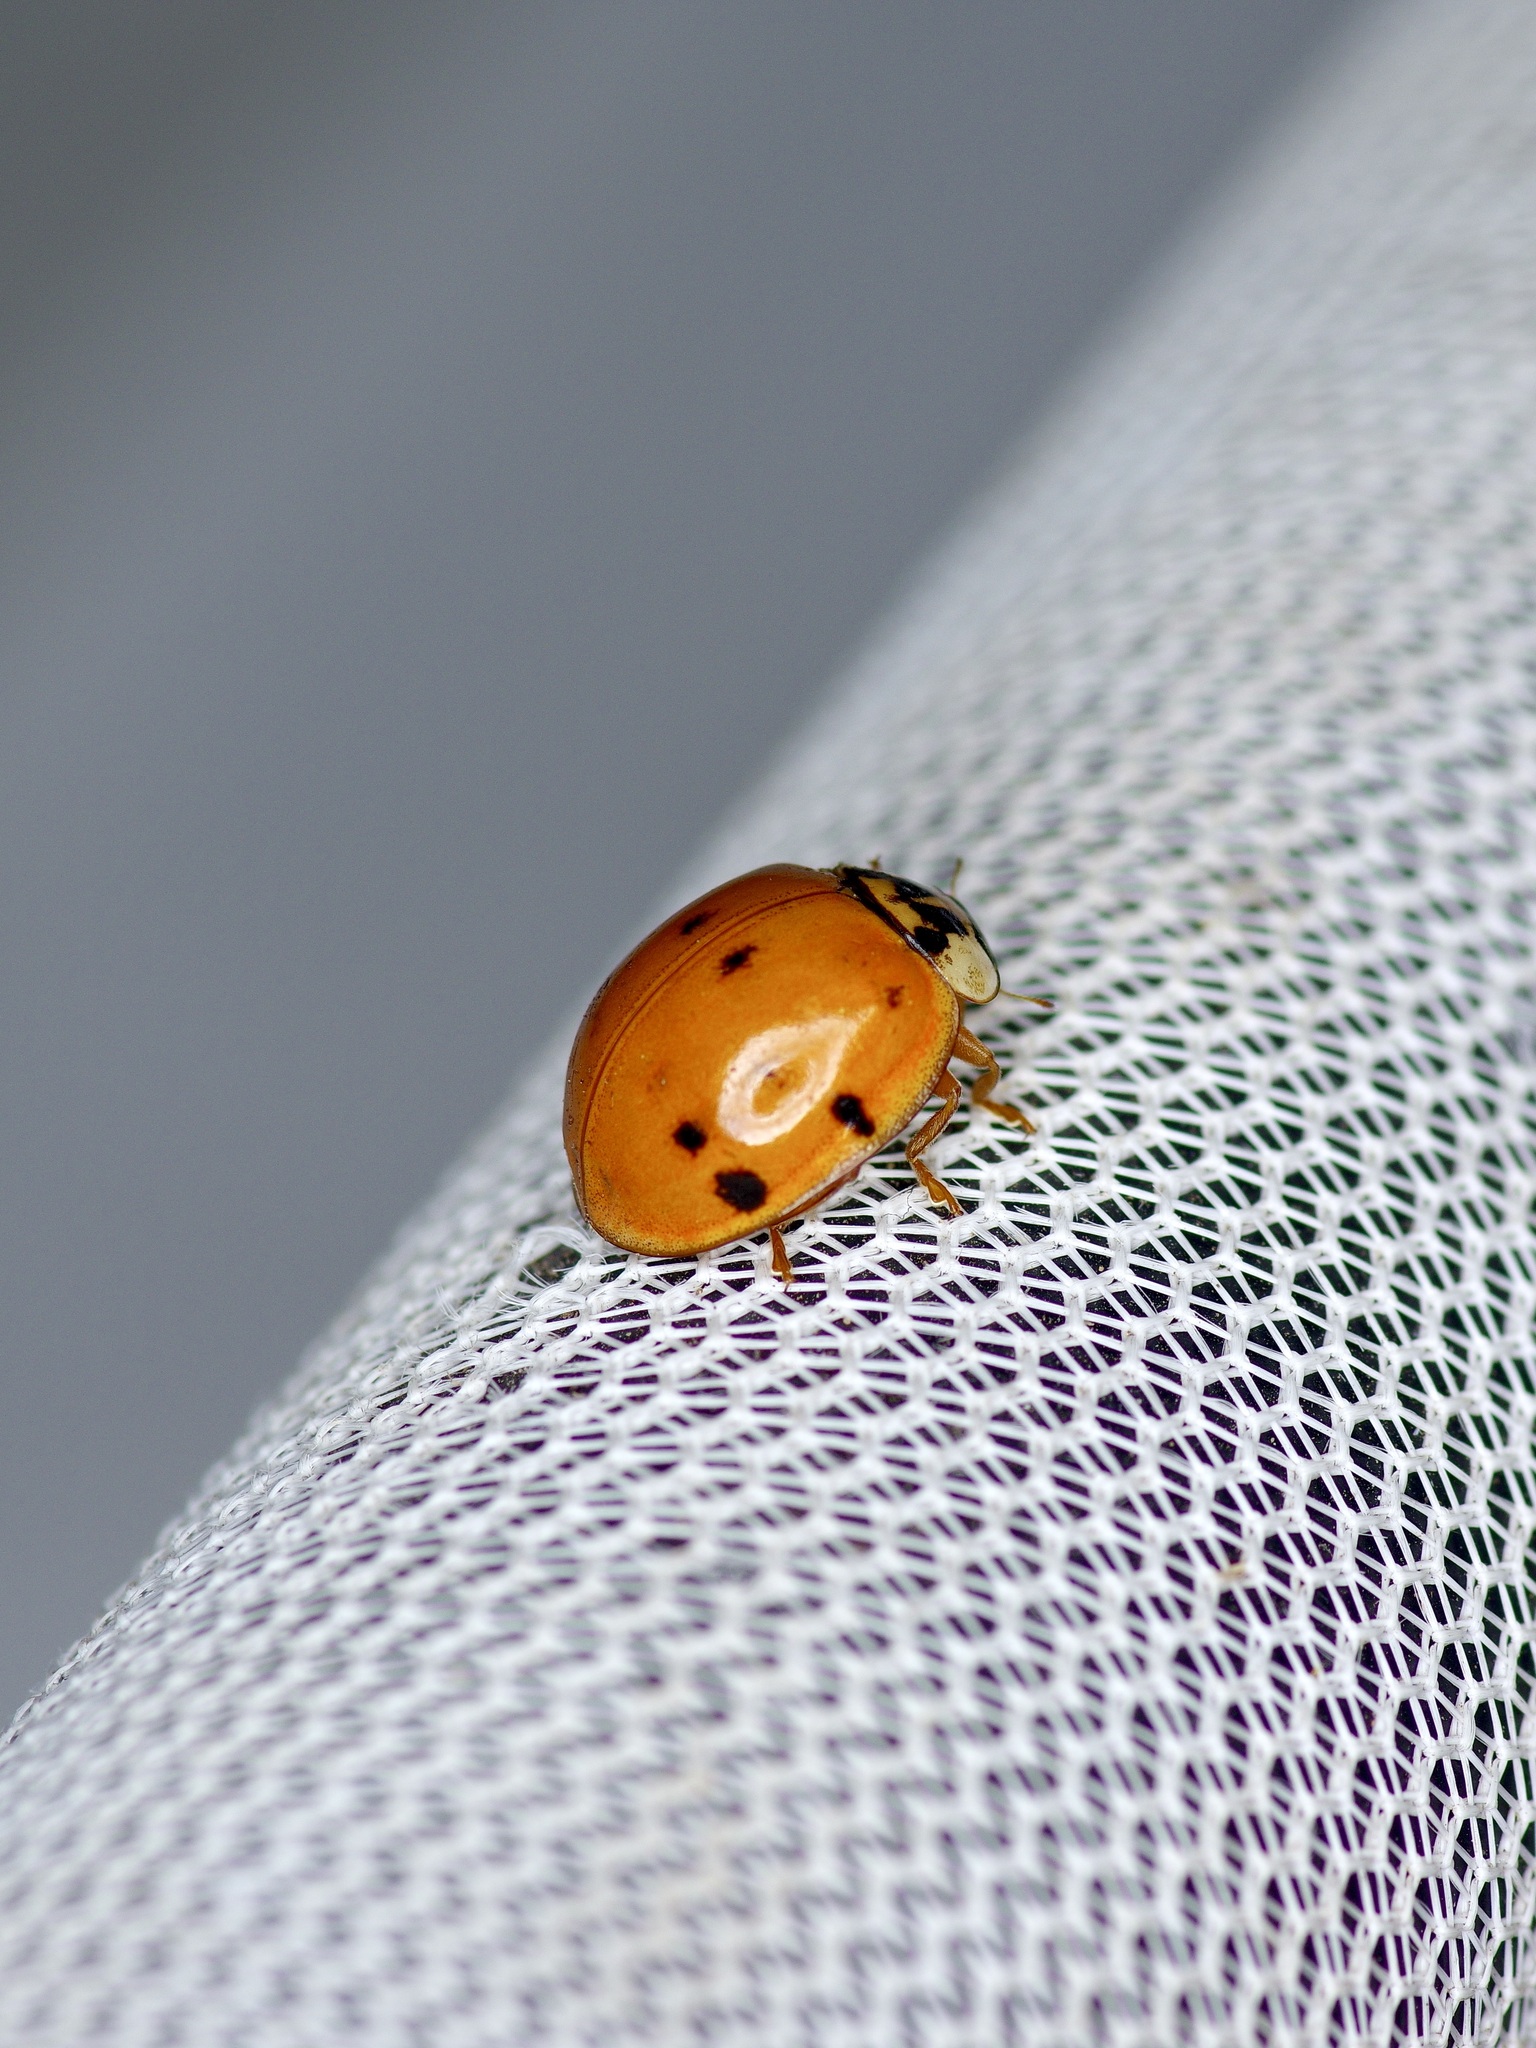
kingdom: Animalia
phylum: Arthropoda
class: Insecta
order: Coleoptera
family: Coccinellidae
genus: Harmonia
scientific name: Harmonia axyridis
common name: Harlequin ladybird
